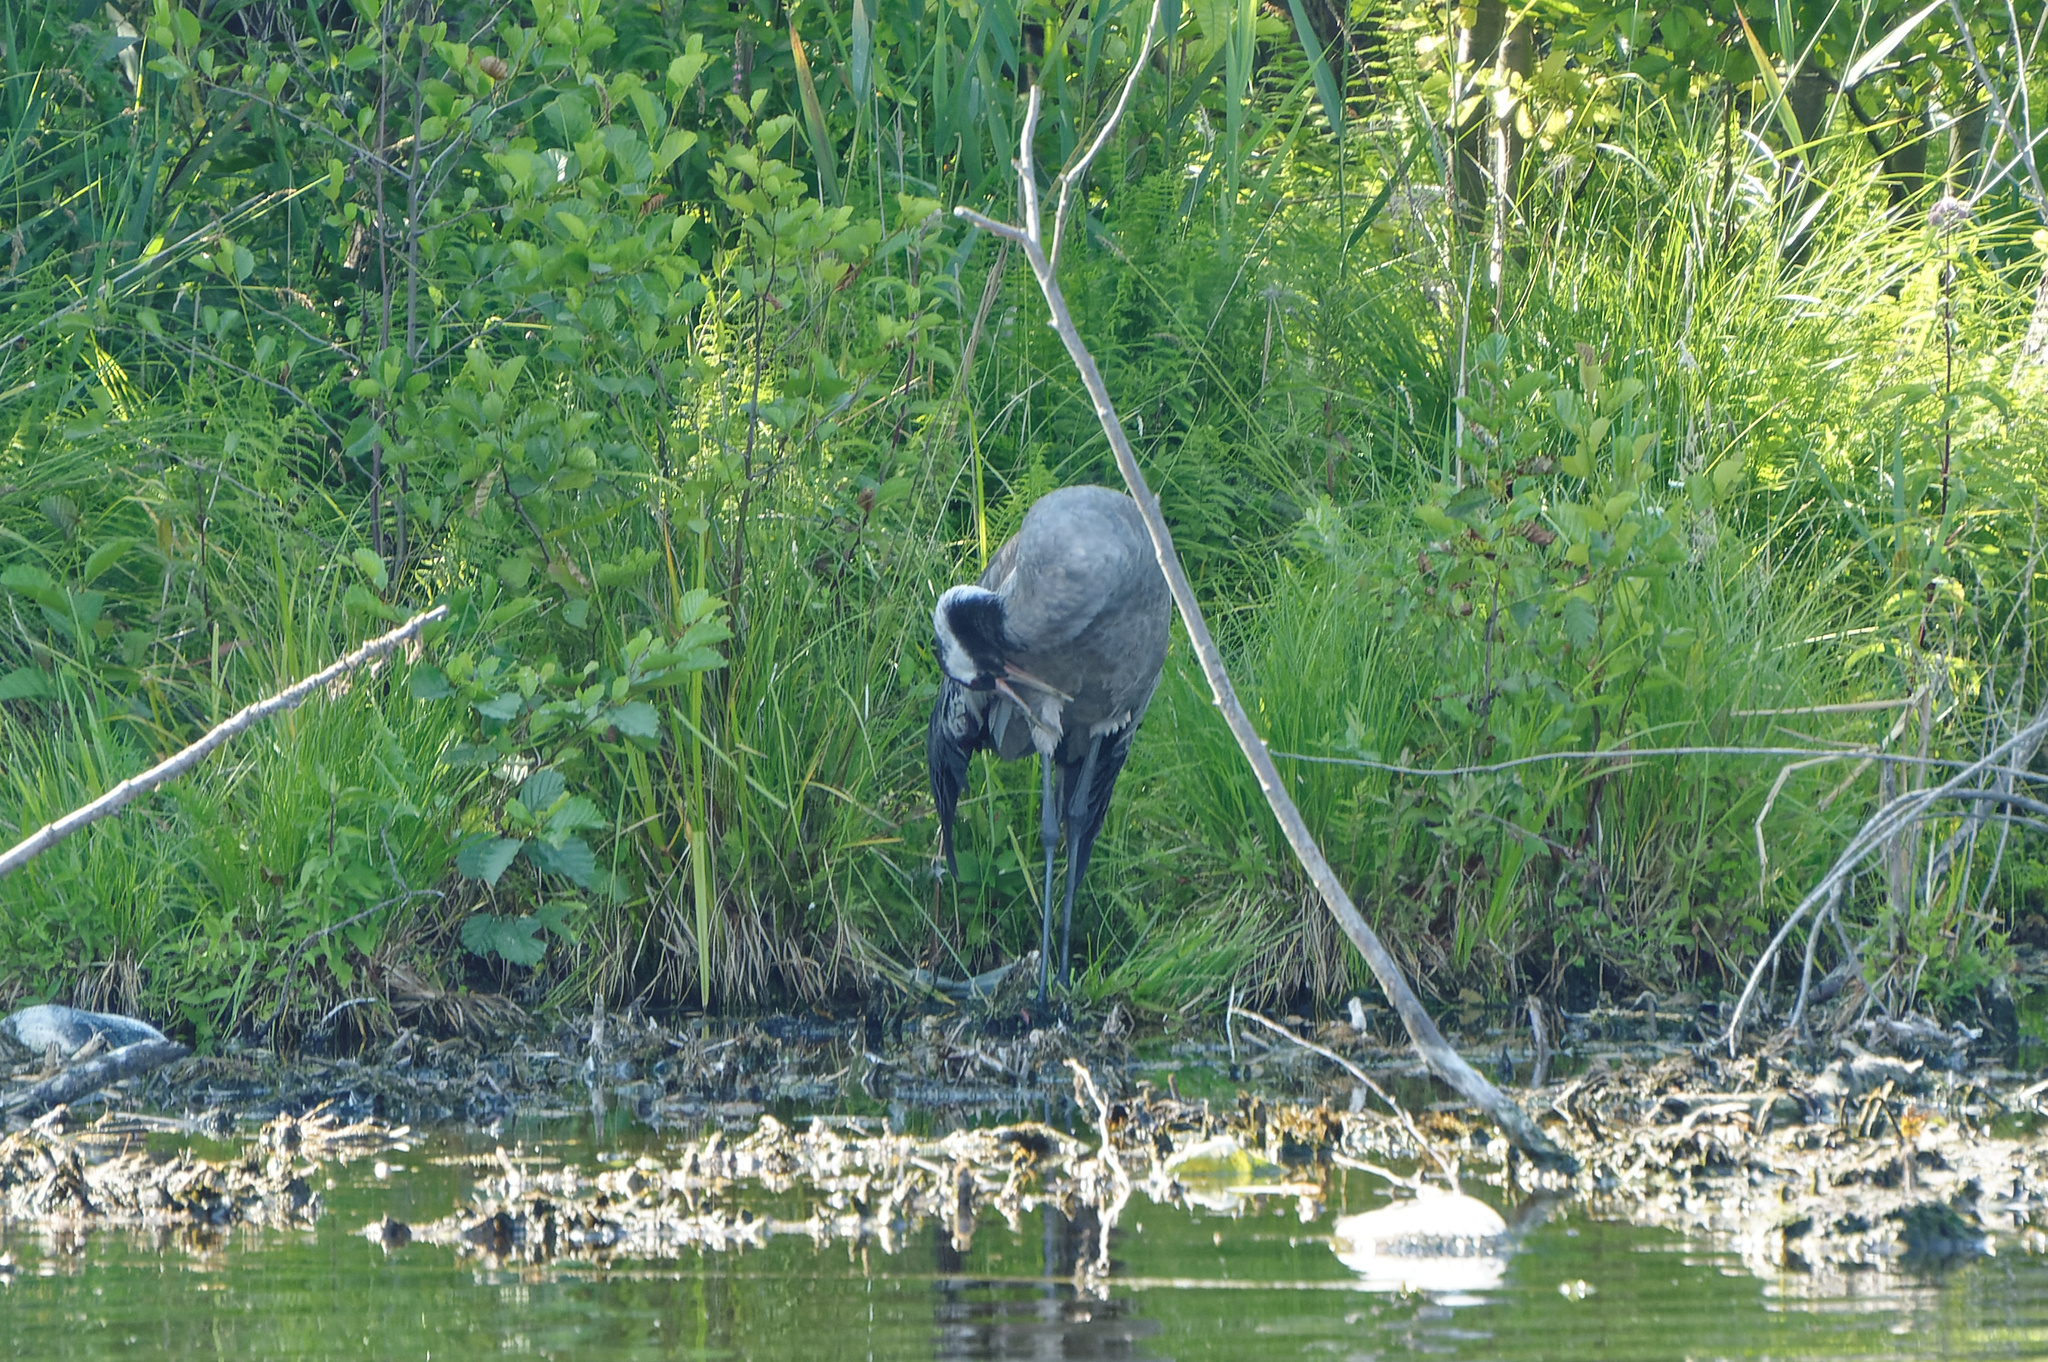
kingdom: Animalia
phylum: Chordata
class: Aves
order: Gruiformes
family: Gruidae
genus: Grus
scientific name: Grus grus
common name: Common crane
